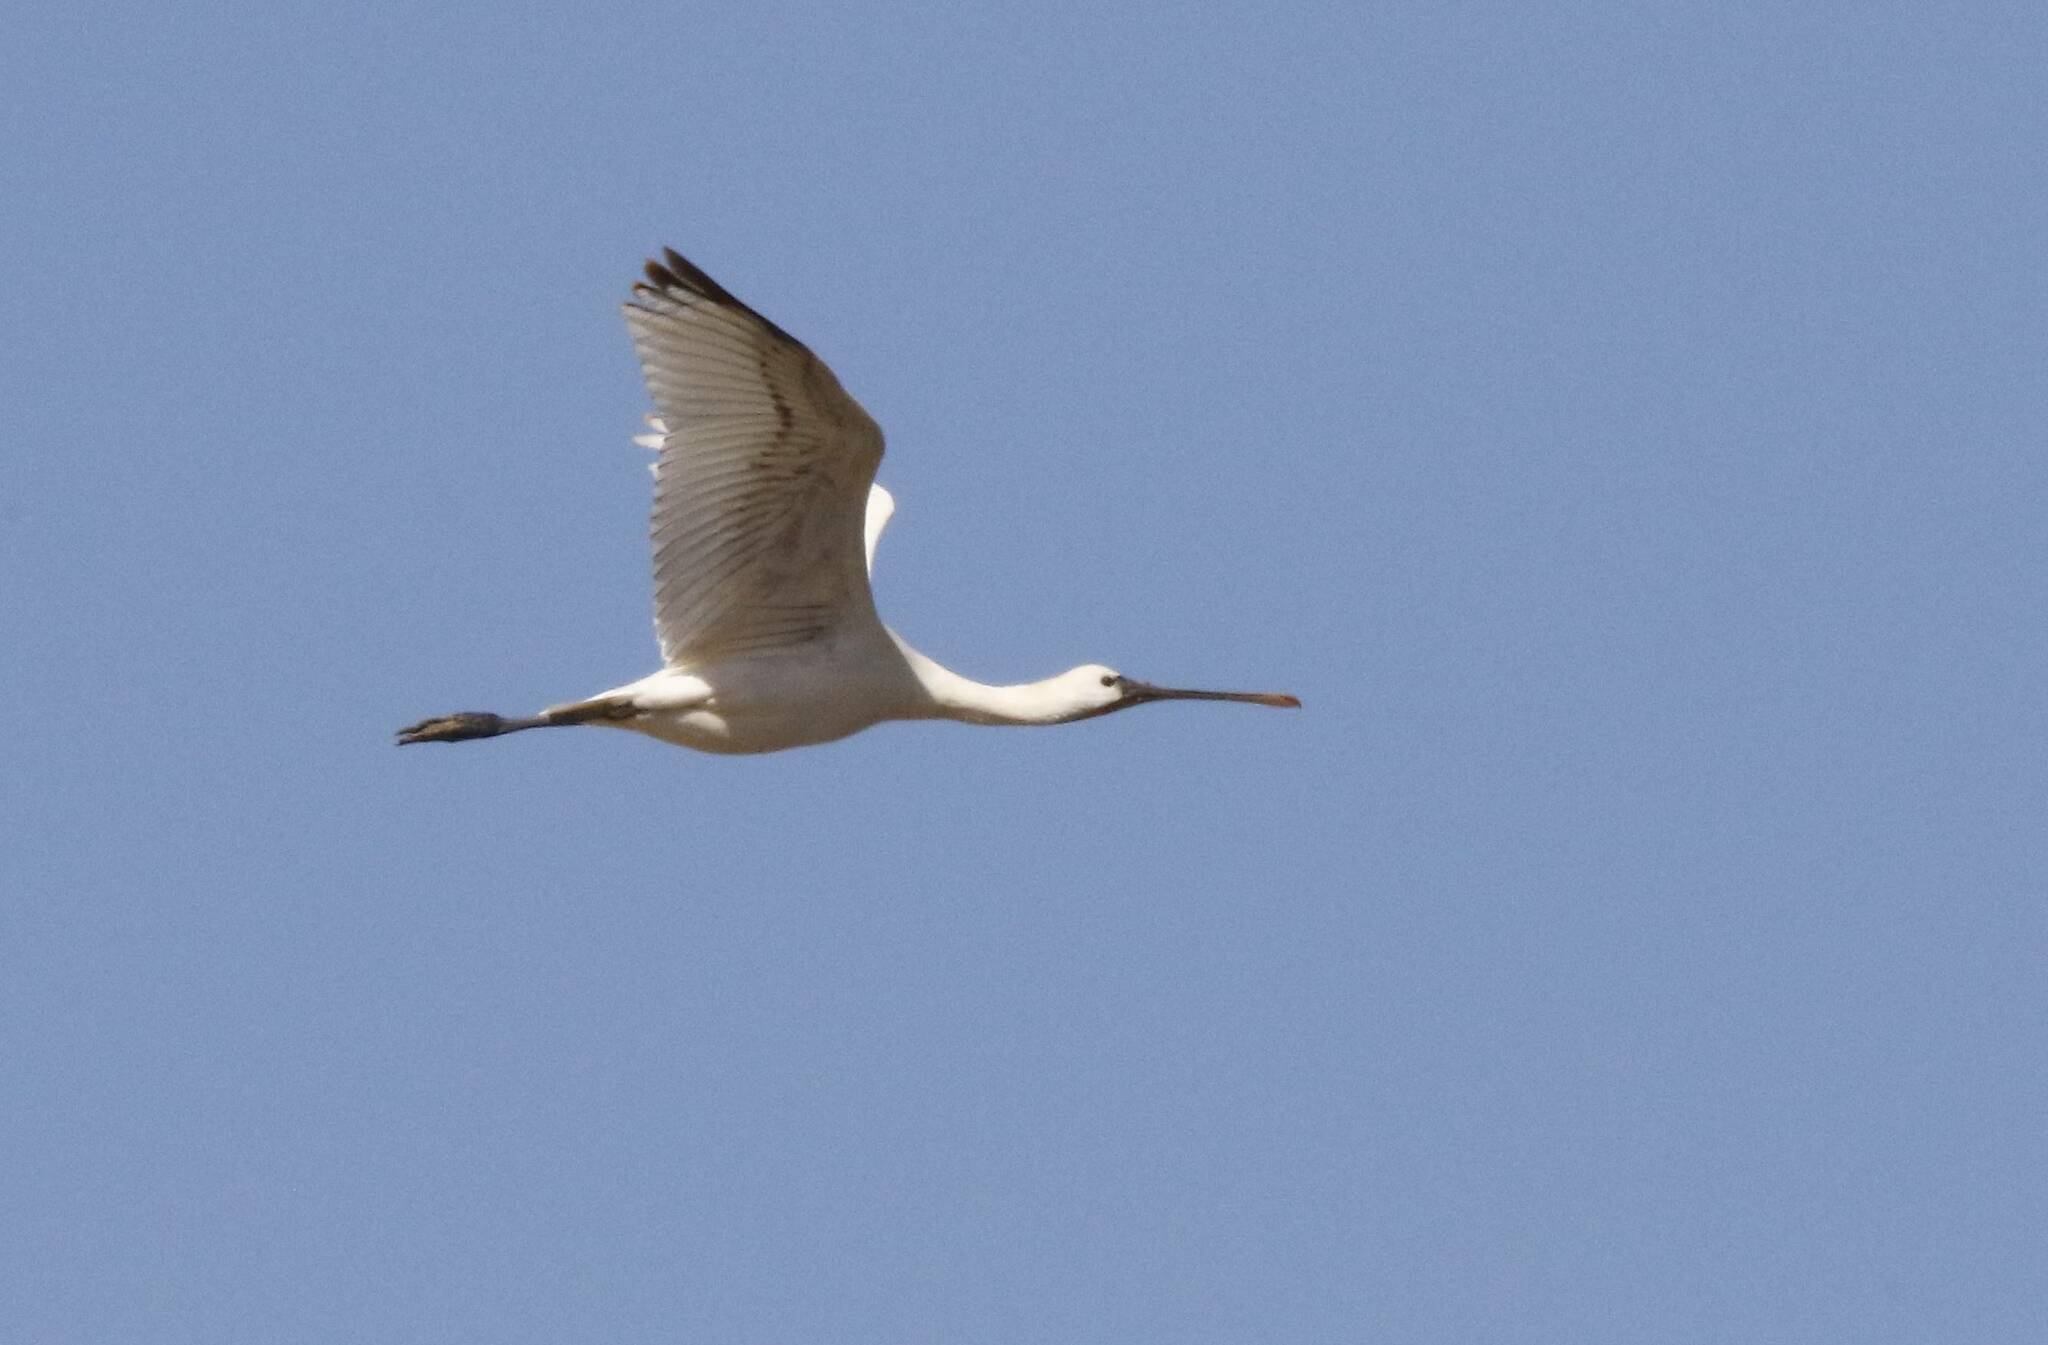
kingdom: Animalia
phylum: Chordata
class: Aves
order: Pelecaniformes
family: Threskiornithidae
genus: Platalea
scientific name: Platalea leucorodia
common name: Eurasian spoonbill
